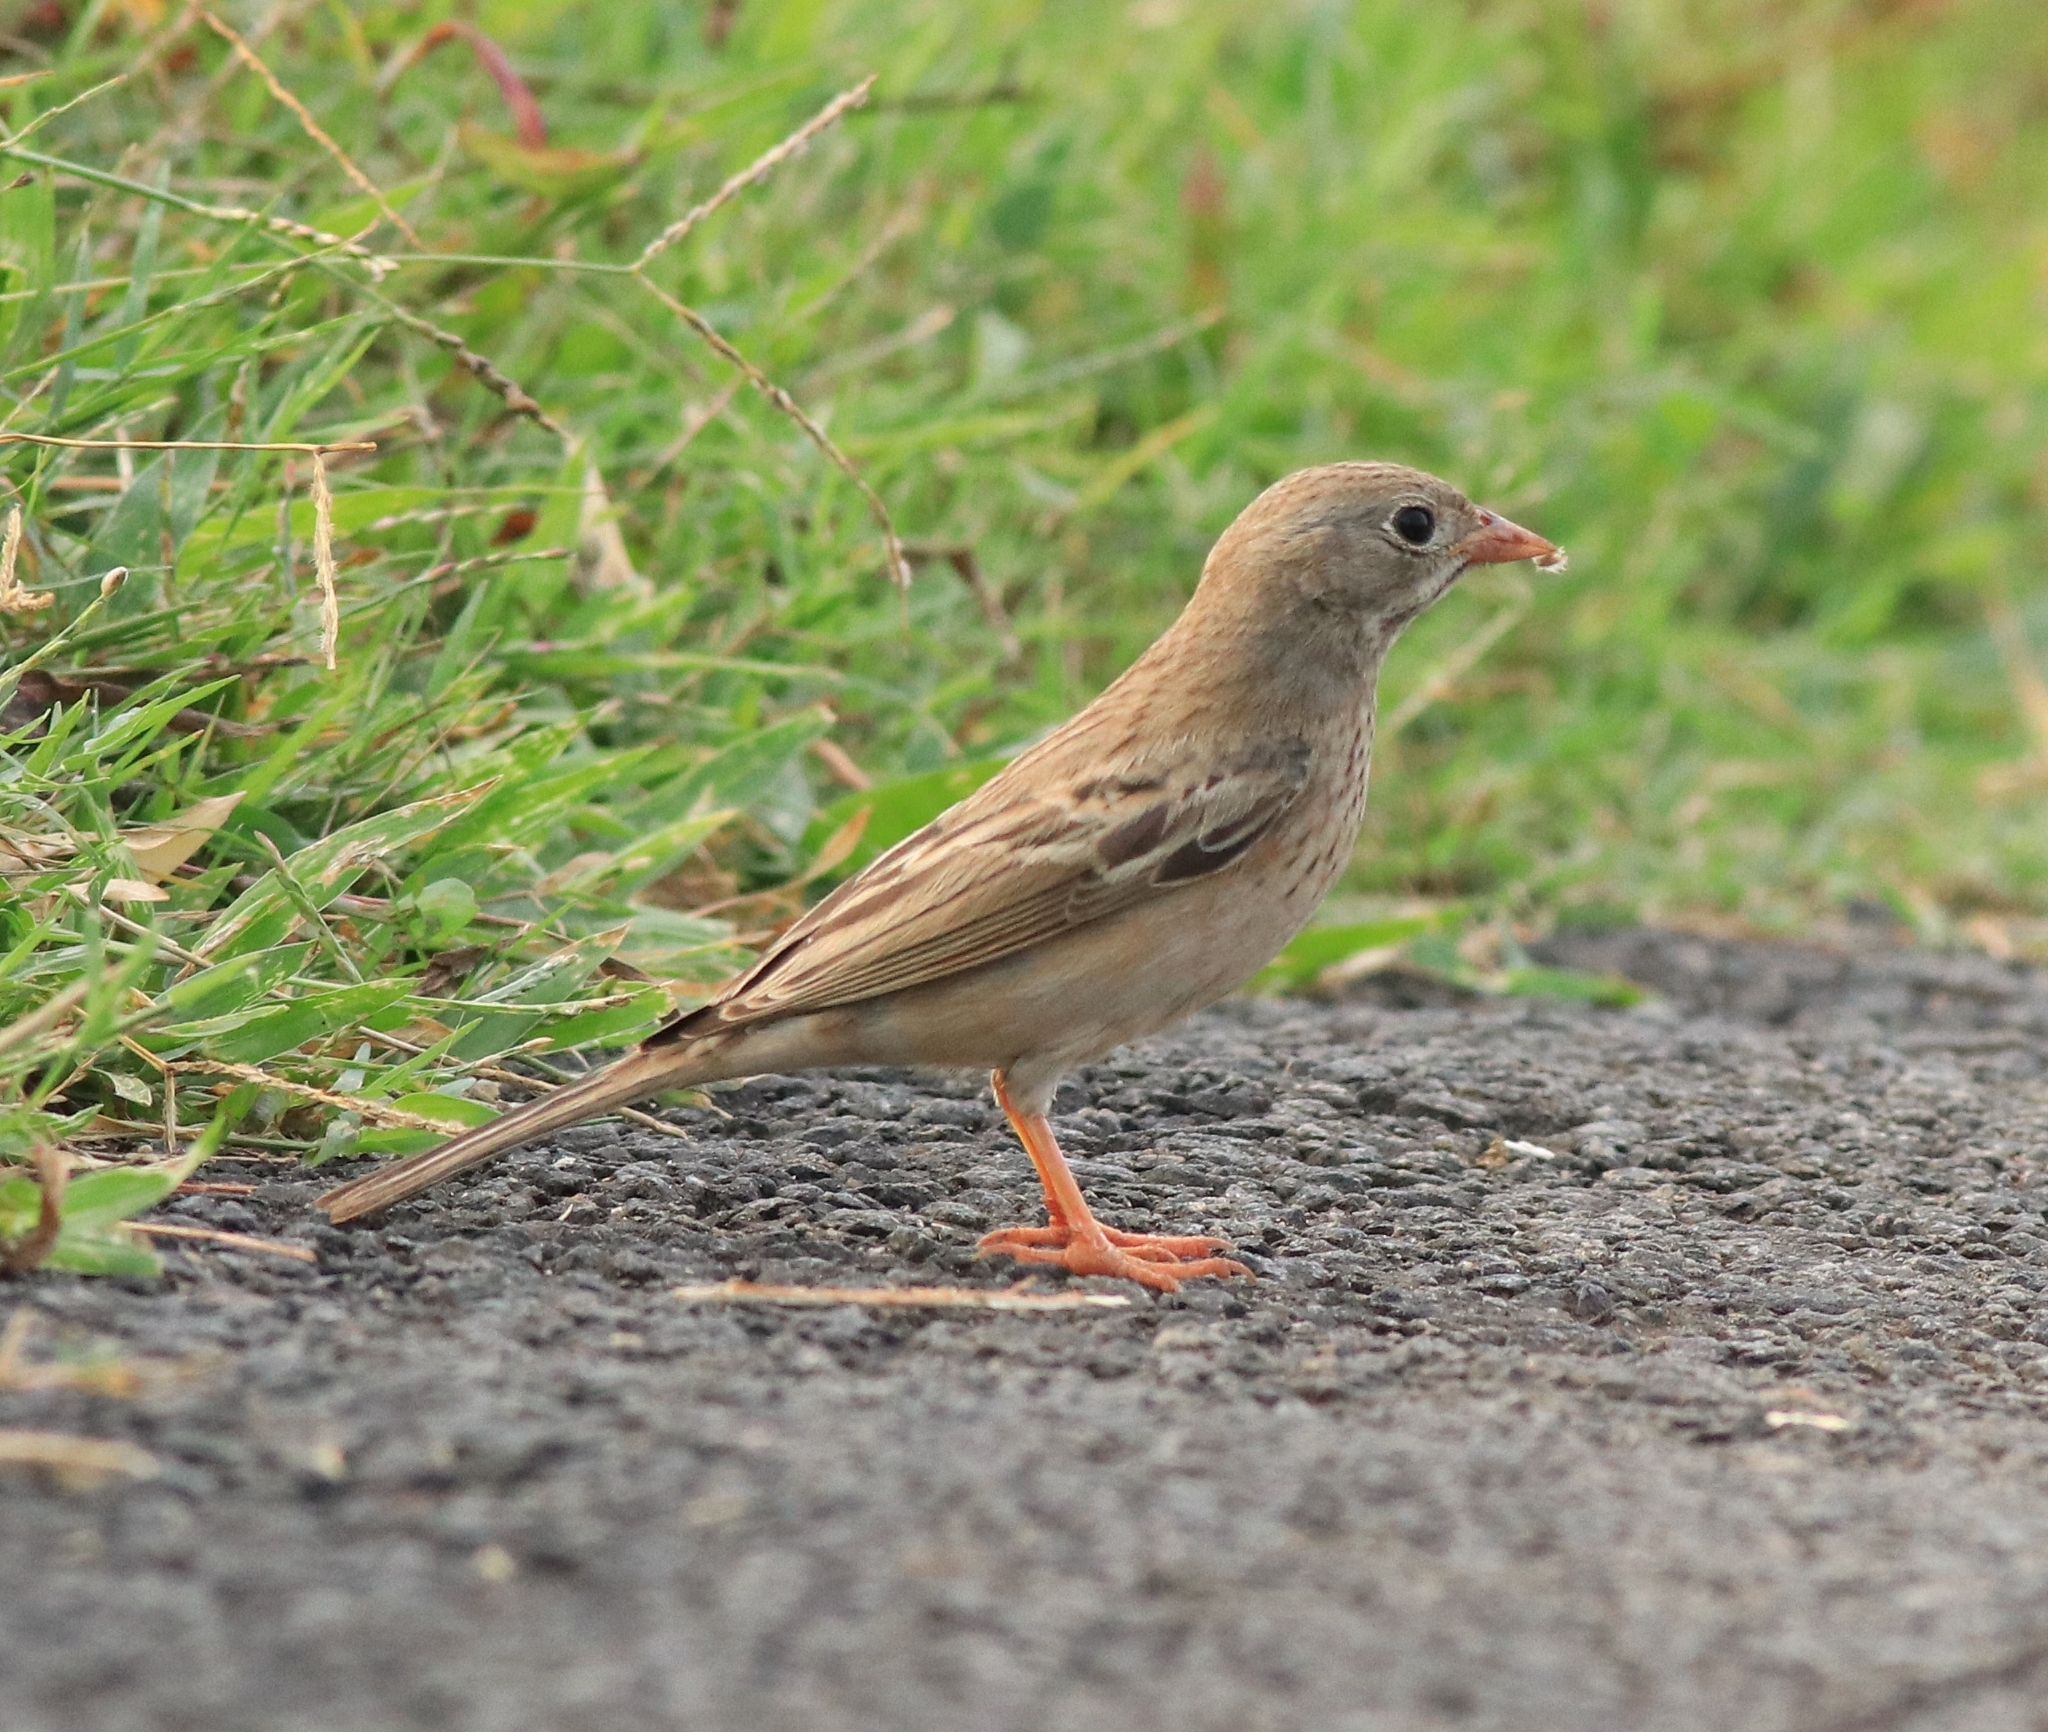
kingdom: Animalia
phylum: Chordata
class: Aves
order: Passeriformes
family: Emberizidae
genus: Emberiza
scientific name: Emberiza buchanani
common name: Grey-necked bunting
